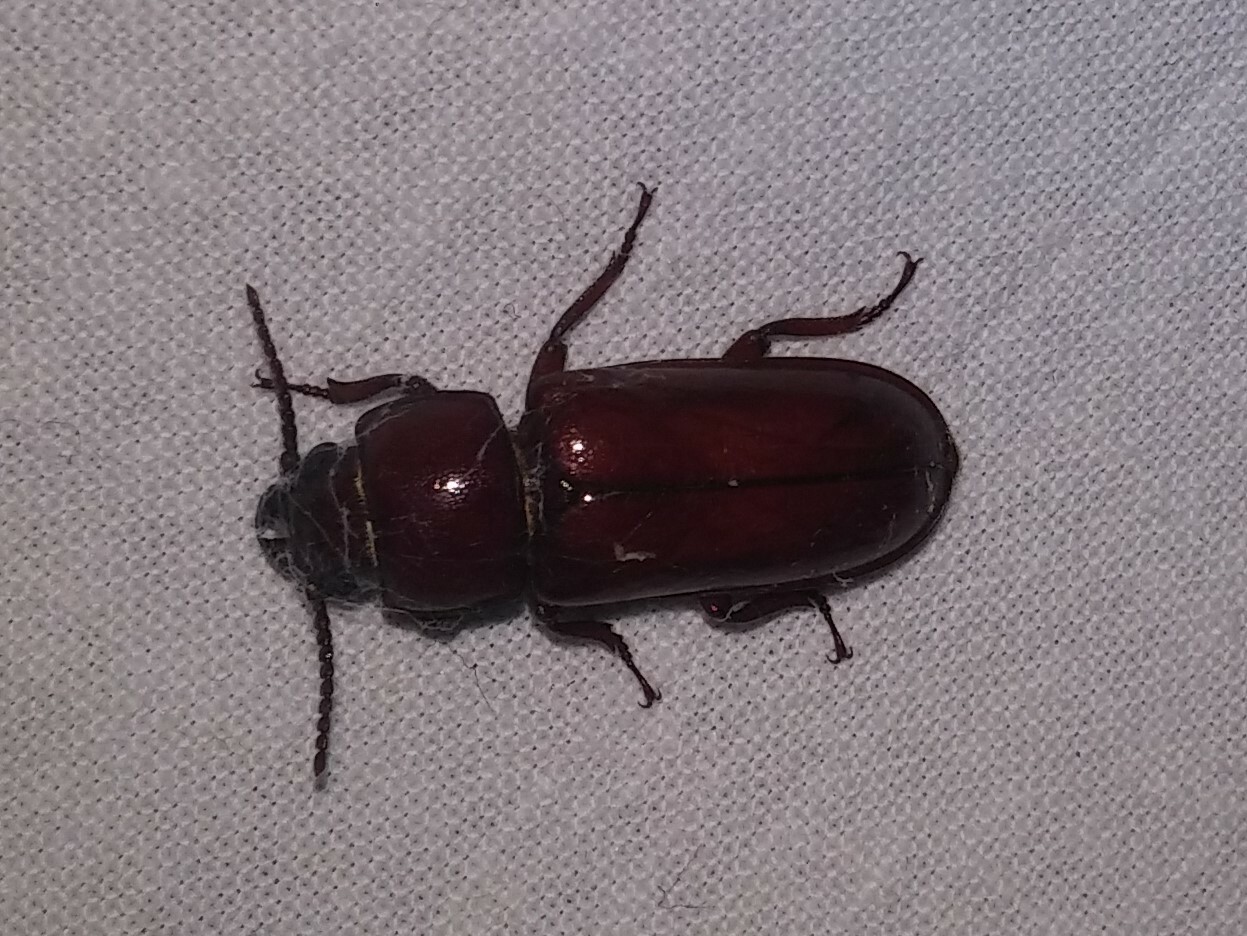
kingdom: Animalia
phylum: Arthropoda
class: Insecta
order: Coleoptera
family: Cerambycidae
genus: Neandra
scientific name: Neandra brunnea
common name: Pole borer
